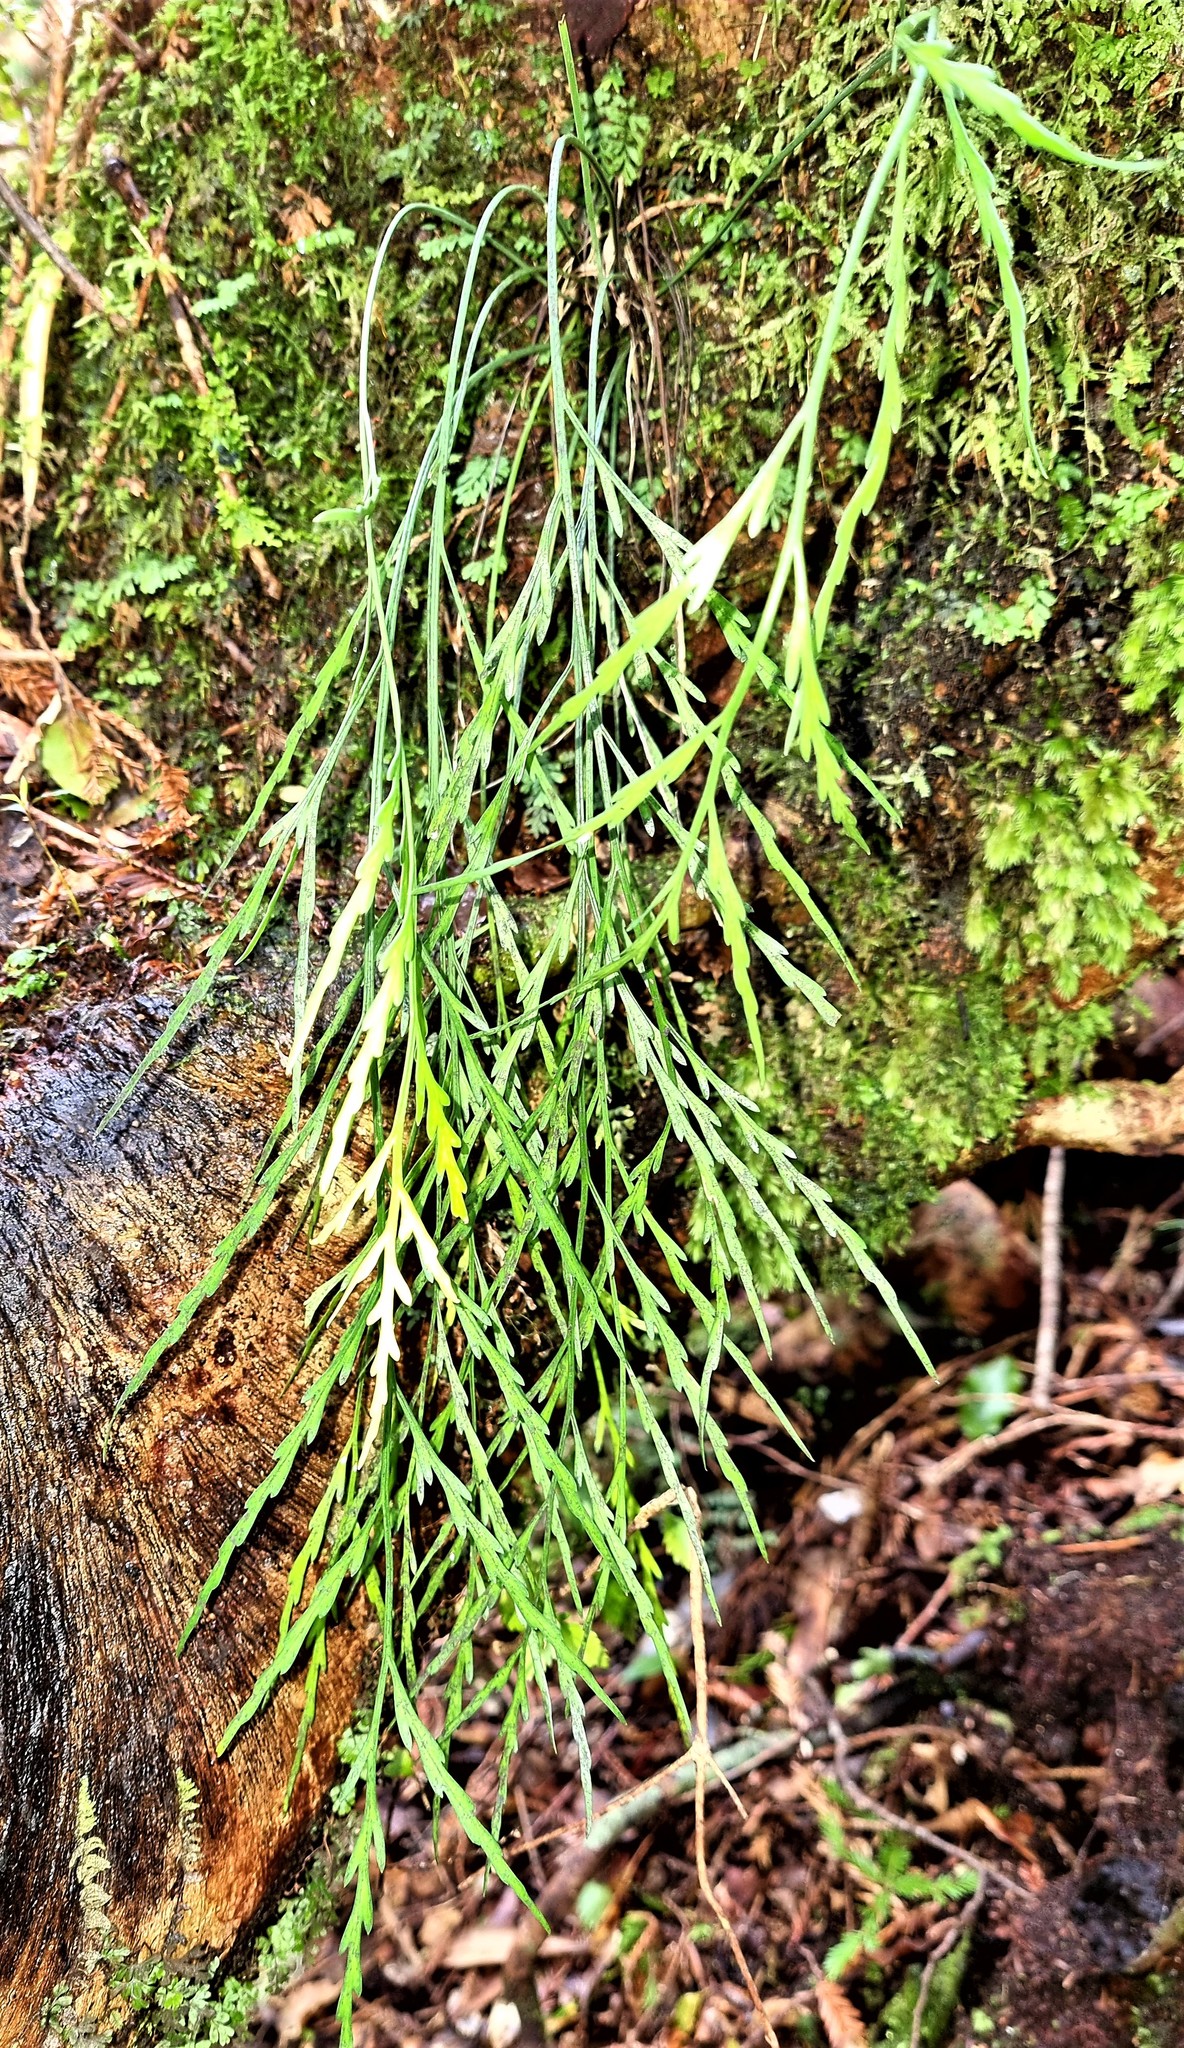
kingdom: Plantae
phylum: Tracheophyta
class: Polypodiopsida
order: Polypodiales
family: Aspleniaceae
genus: Asplenium
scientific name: Asplenium flaccidum
